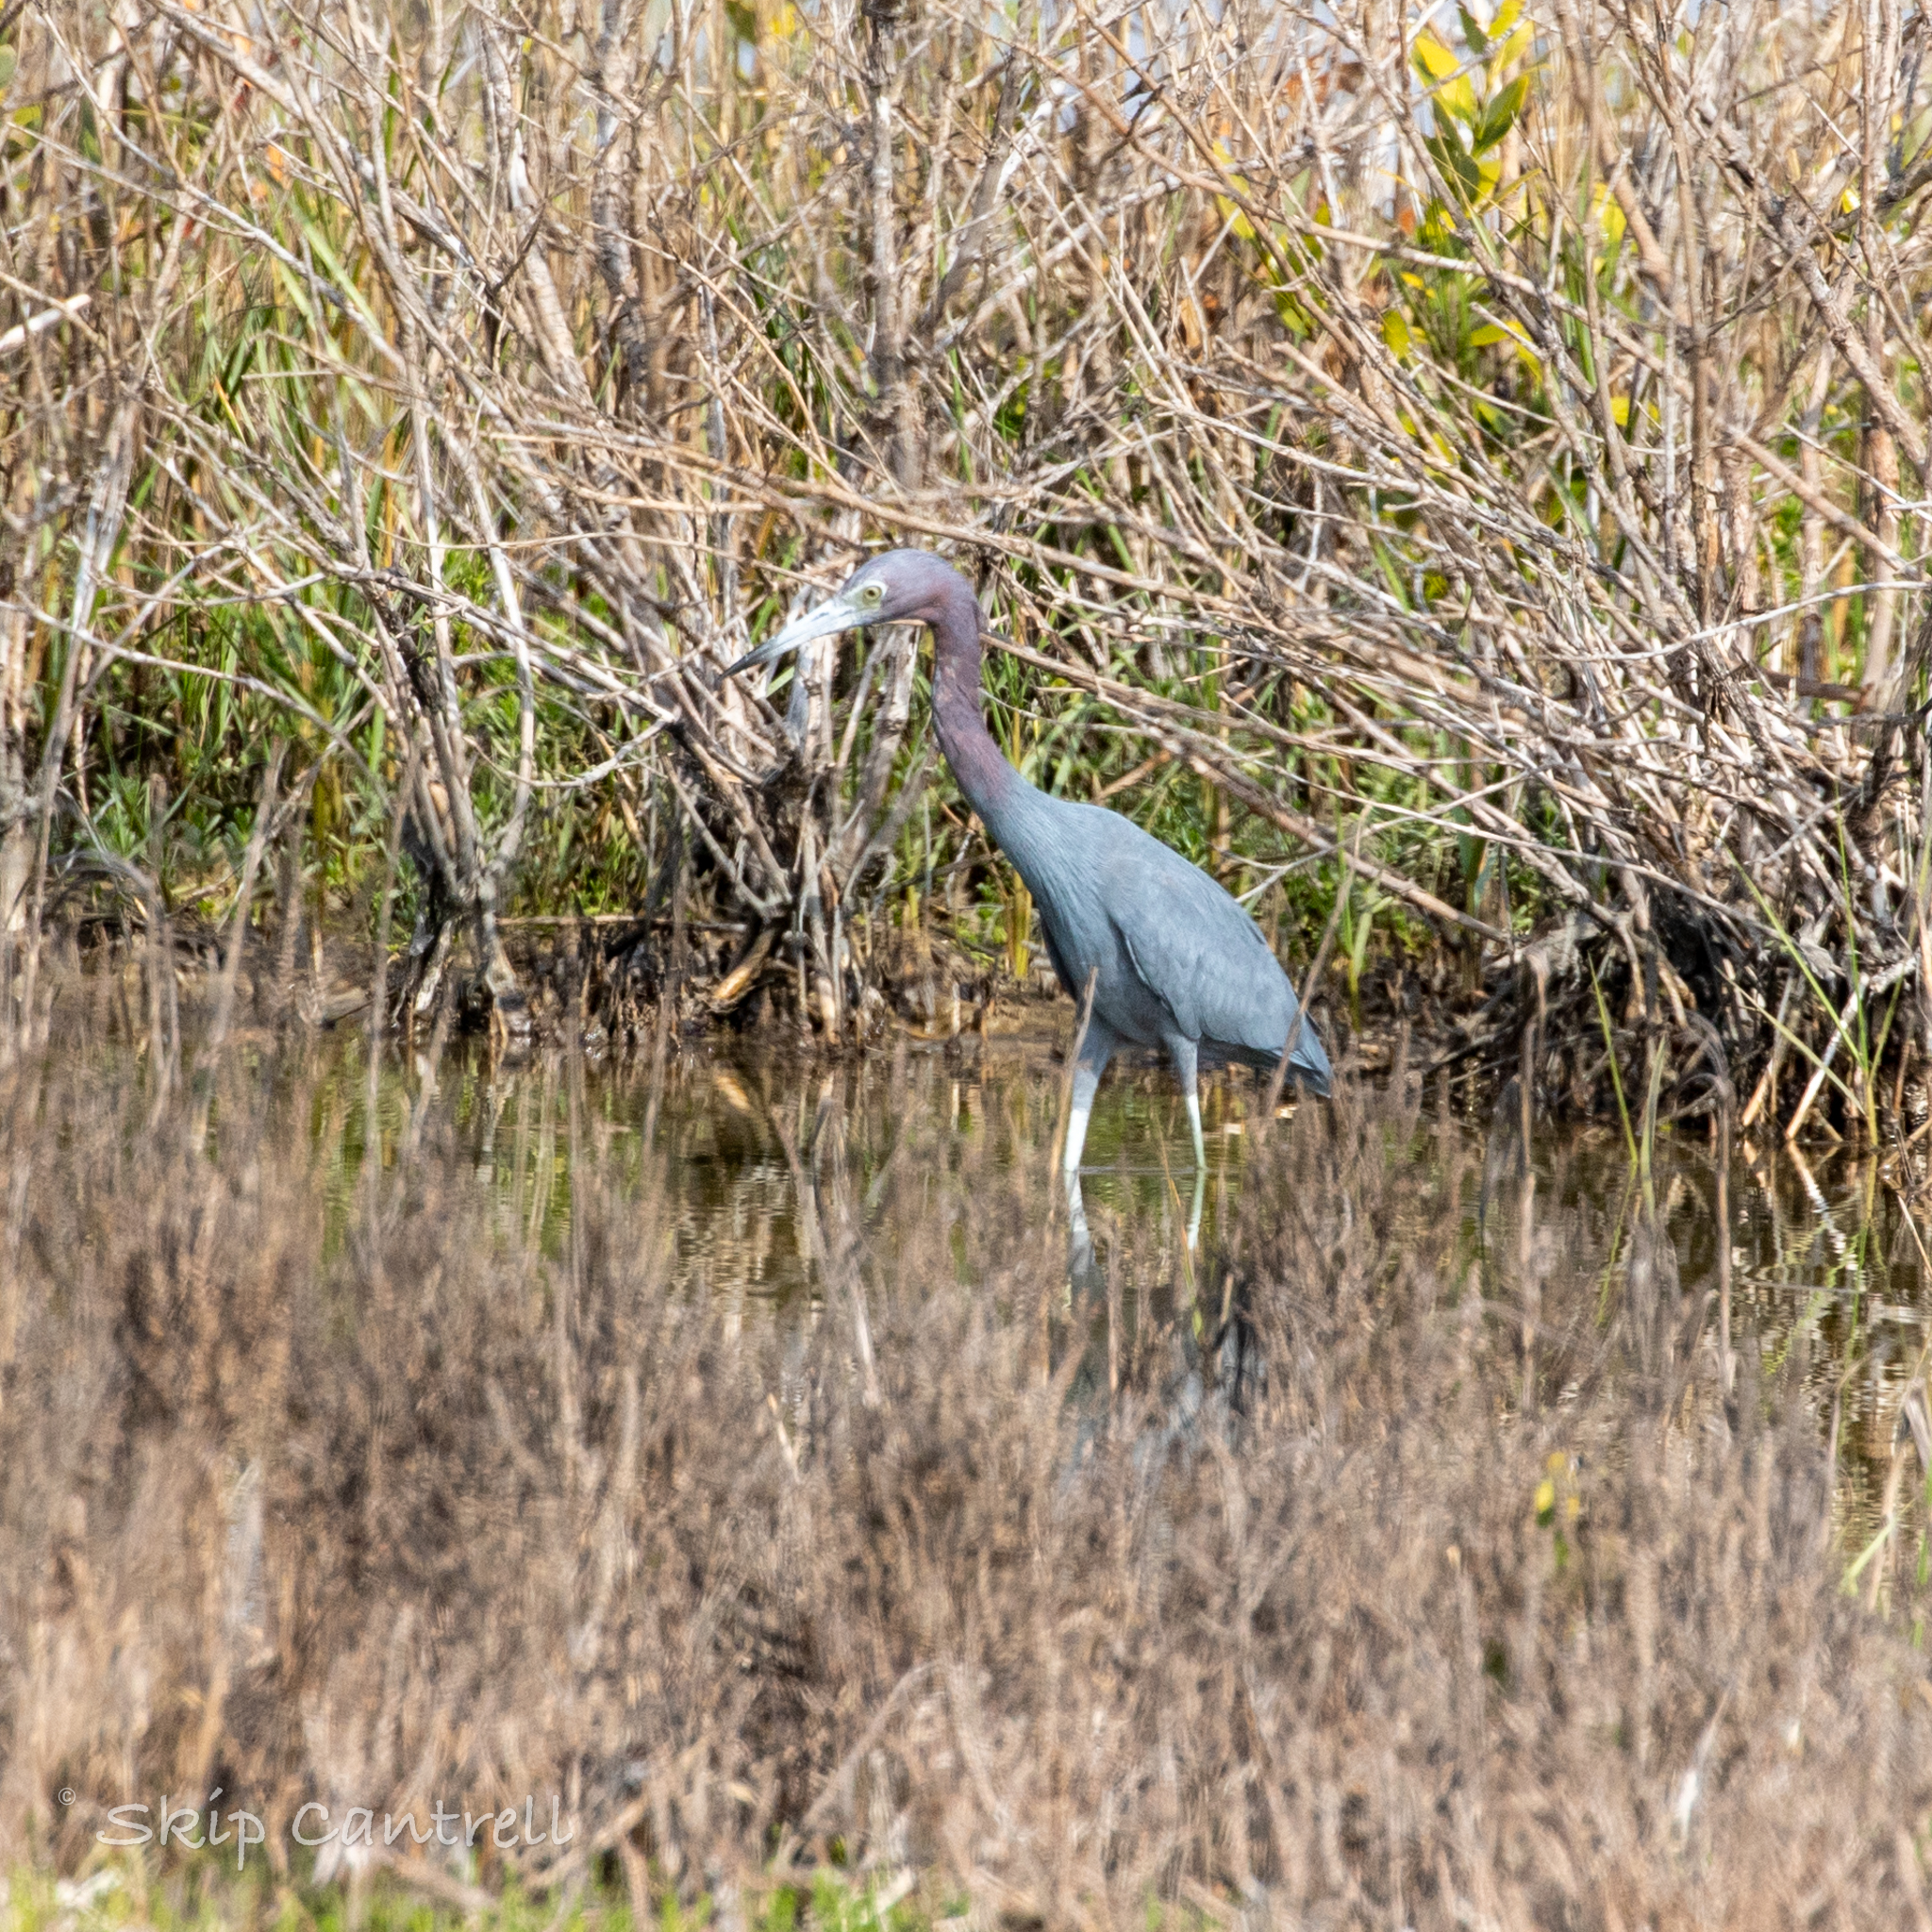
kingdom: Animalia
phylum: Chordata
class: Aves
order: Pelecaniformes
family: Ardeidae
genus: Egretta
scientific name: Egretta caerulea
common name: Little blue heron
